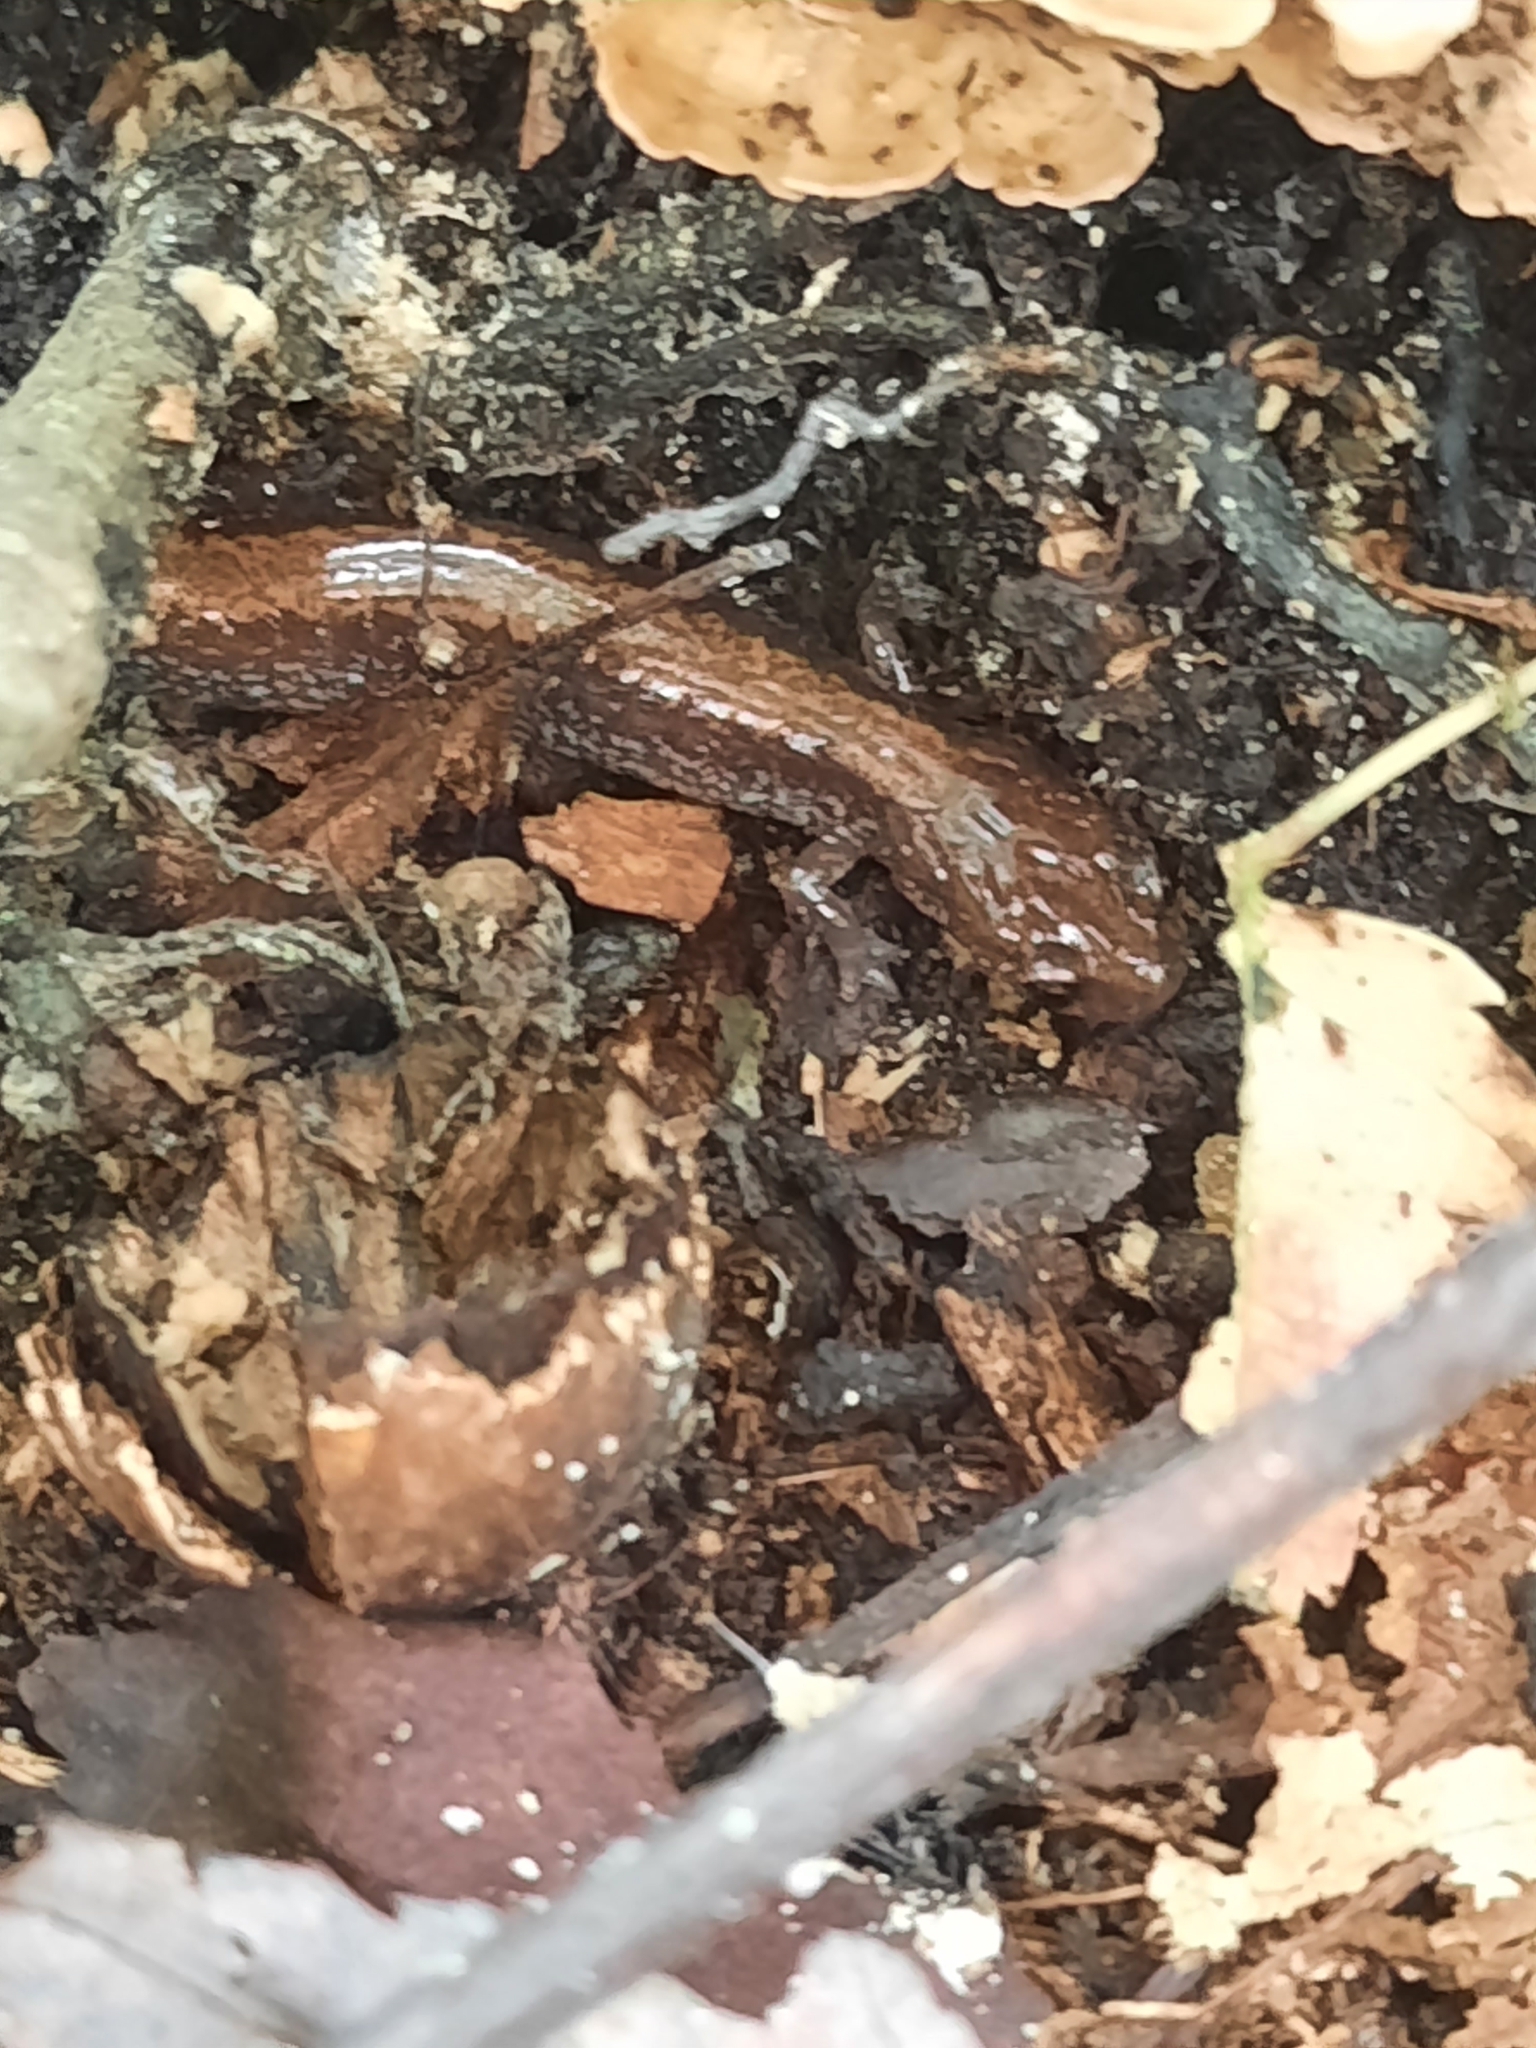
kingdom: Animalia
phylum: Chordata
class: Amphibia
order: Caudata
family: Plethodontidae
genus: Plethodon
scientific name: Plethodon cinereus
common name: Redback salamander
